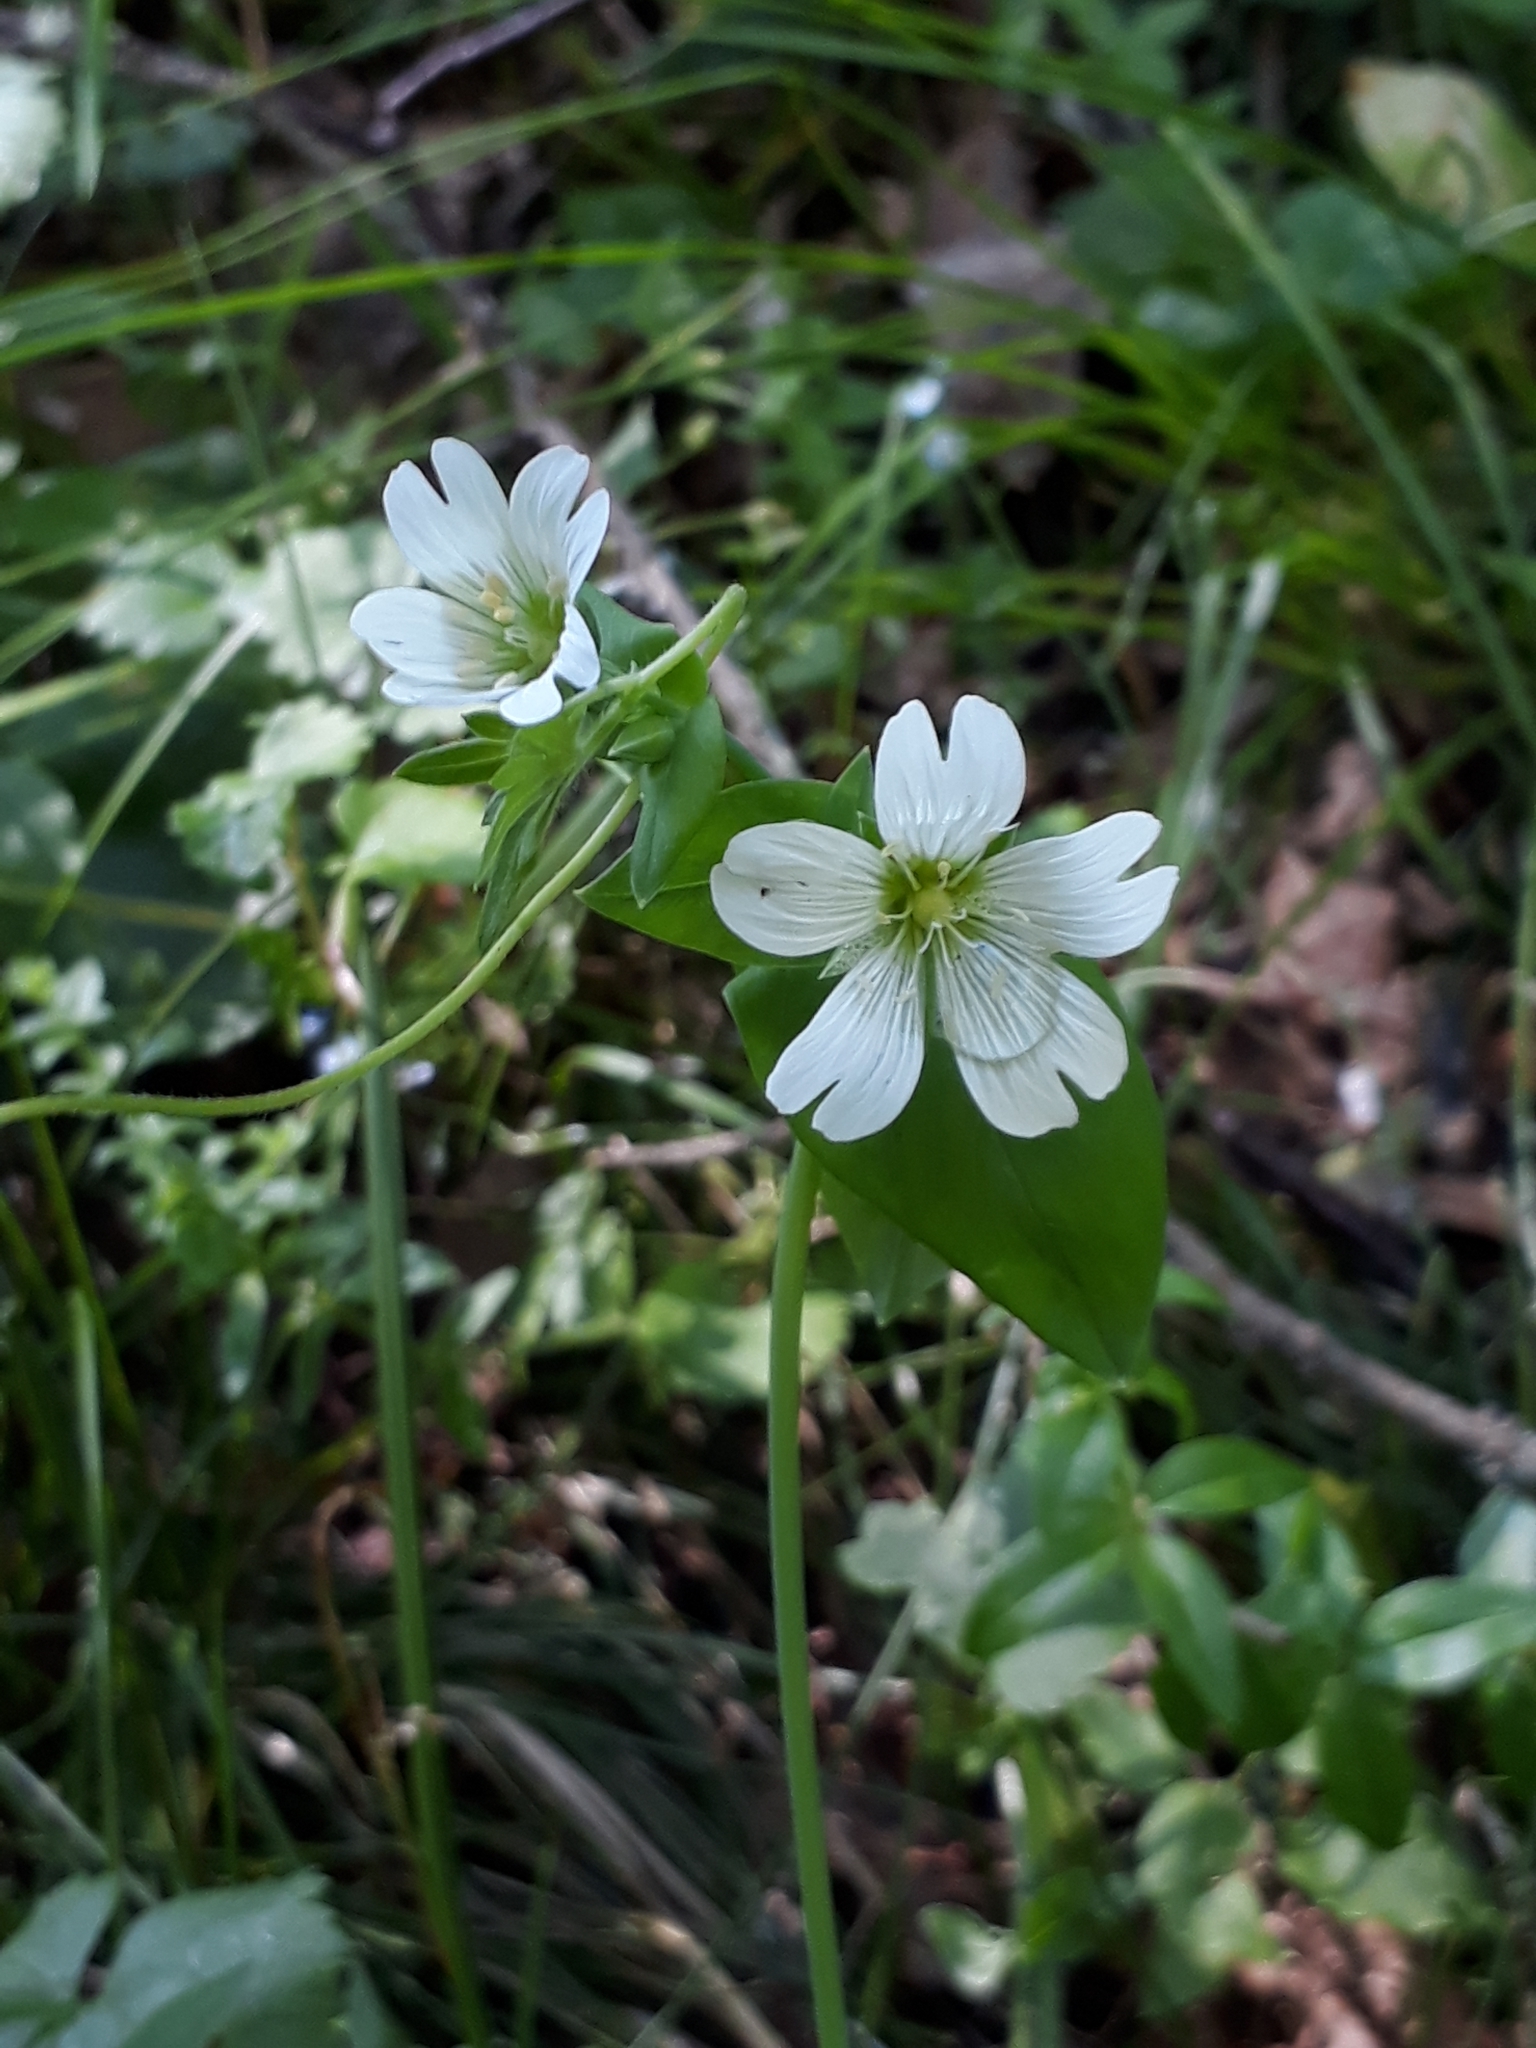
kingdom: Plantae
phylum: Tracheophyta
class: Magnoliopsida
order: Caryophyllales
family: Caryophyllaceae
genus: Cerastium
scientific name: Cerastium davuricum
